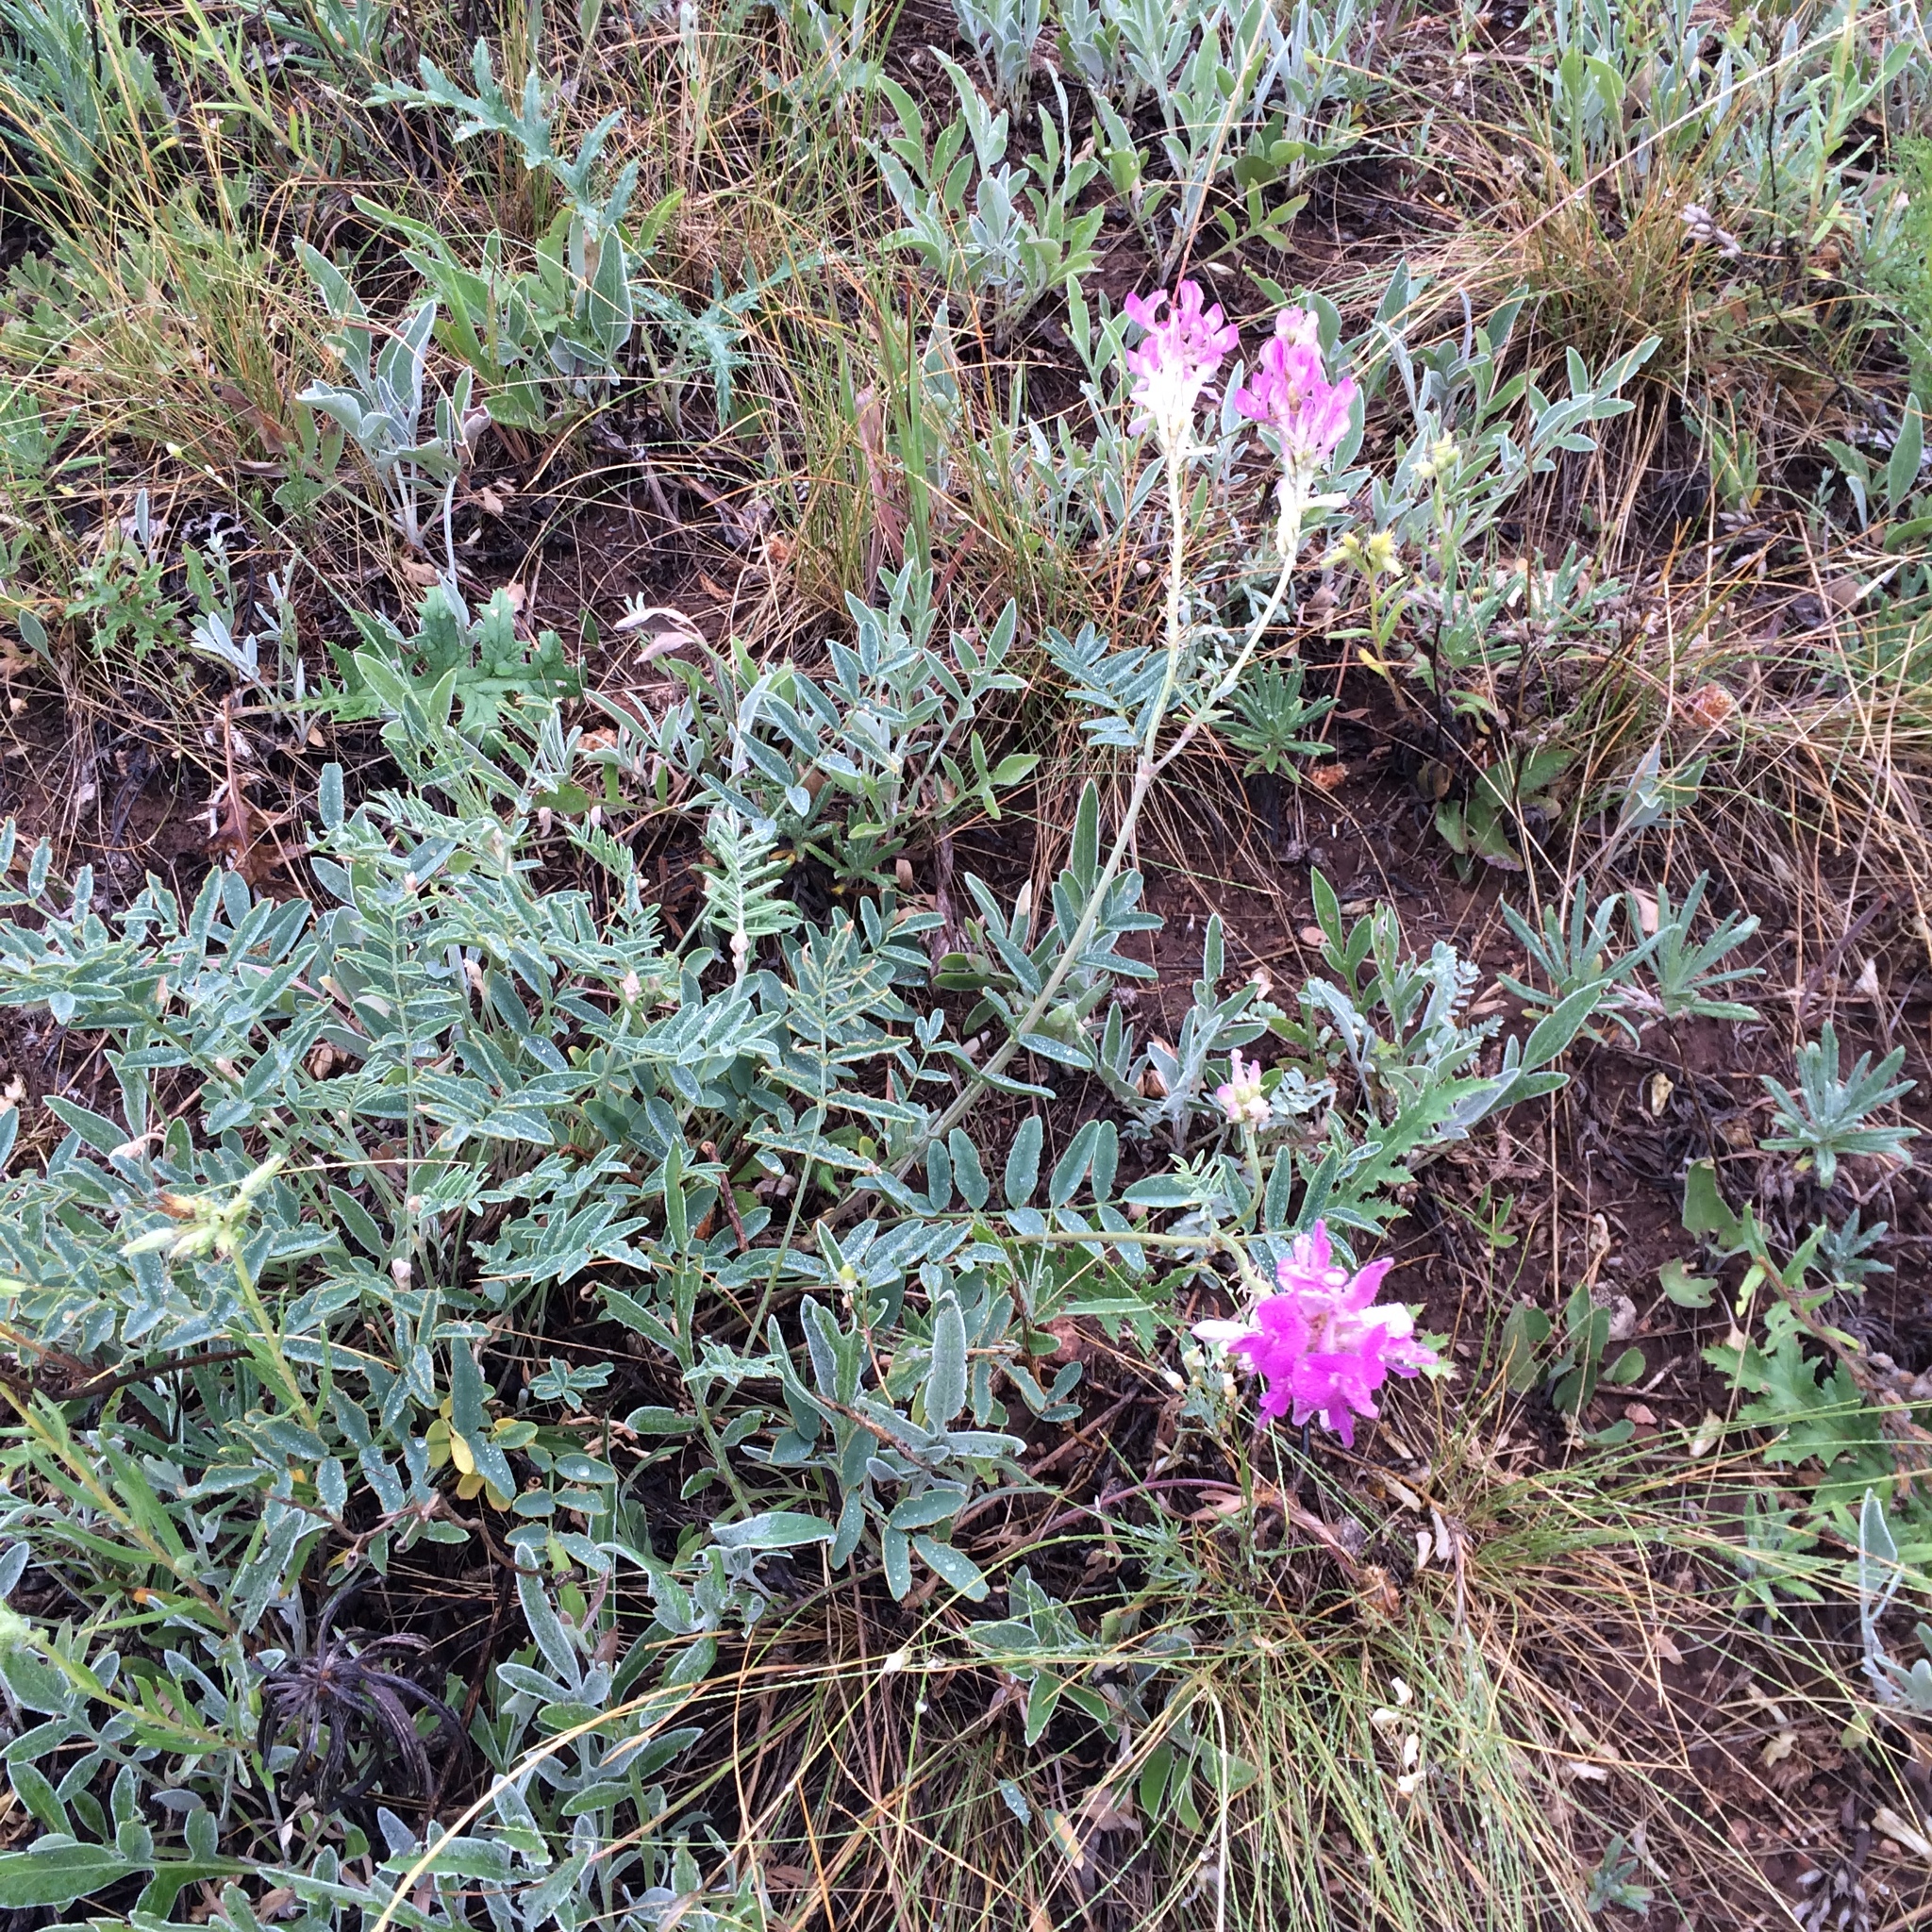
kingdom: Plantae
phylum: Tracheophyta
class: Magnoliopsida
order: Fabales
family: Fabaceae
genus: Hedysarum
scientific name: Hedysarum gmelinii
